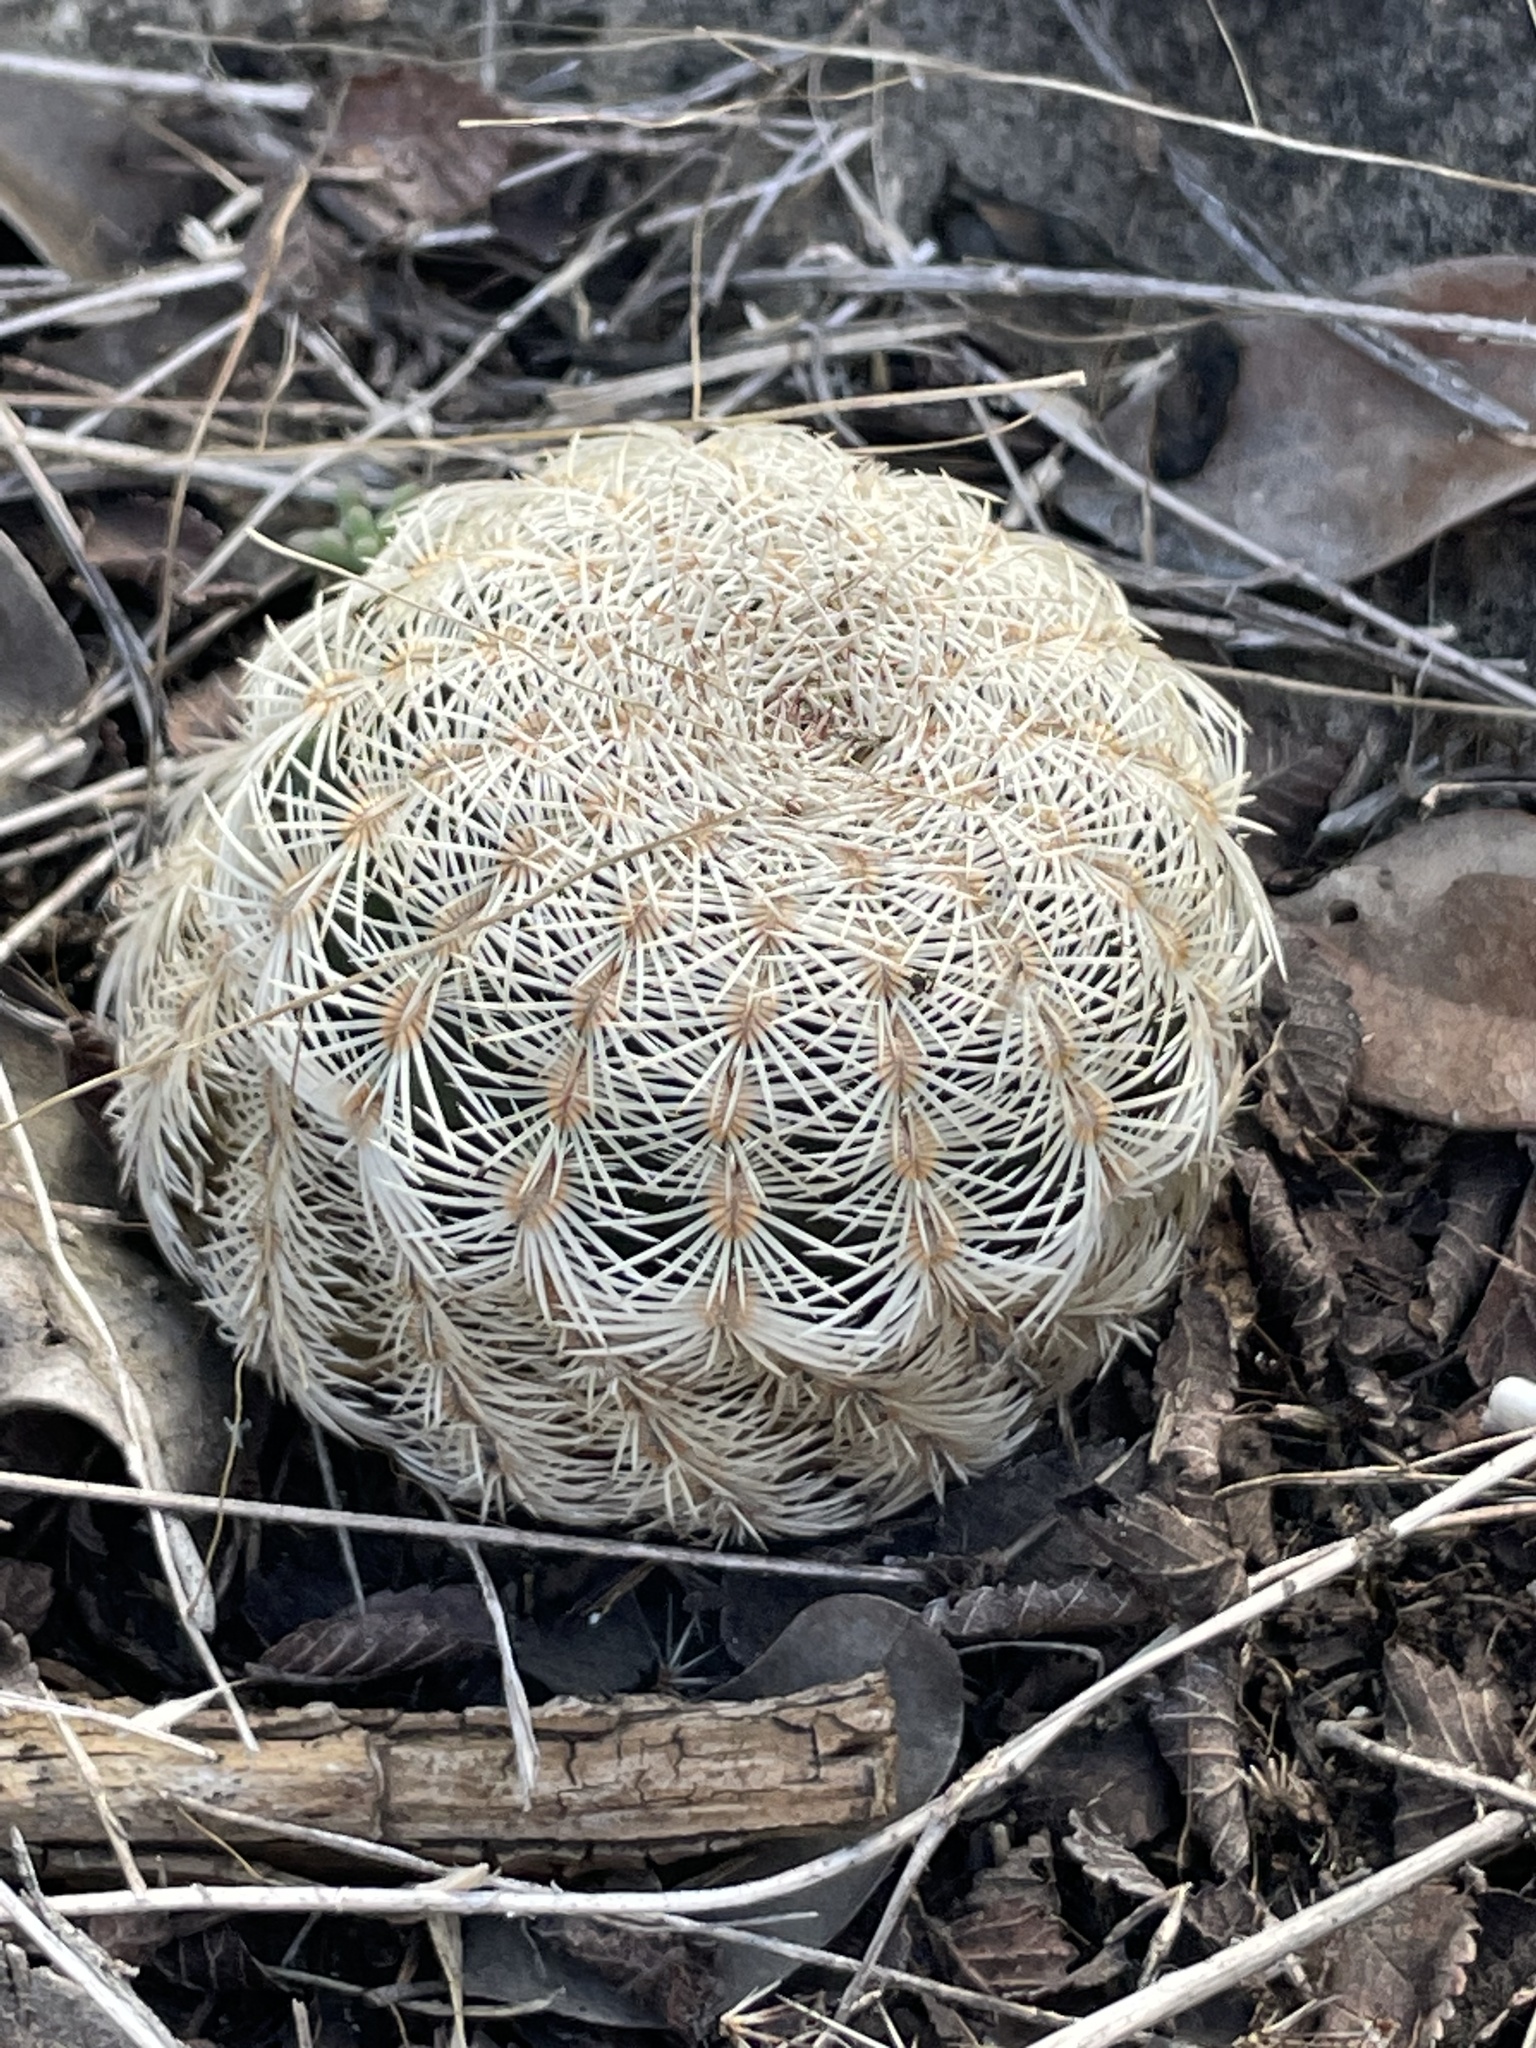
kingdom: Plantae
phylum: Tracheophyta
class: Magnoliopsida
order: Caryophyllales
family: Cactaceae
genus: Echinocereus
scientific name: Echinocereus reichenbachii
